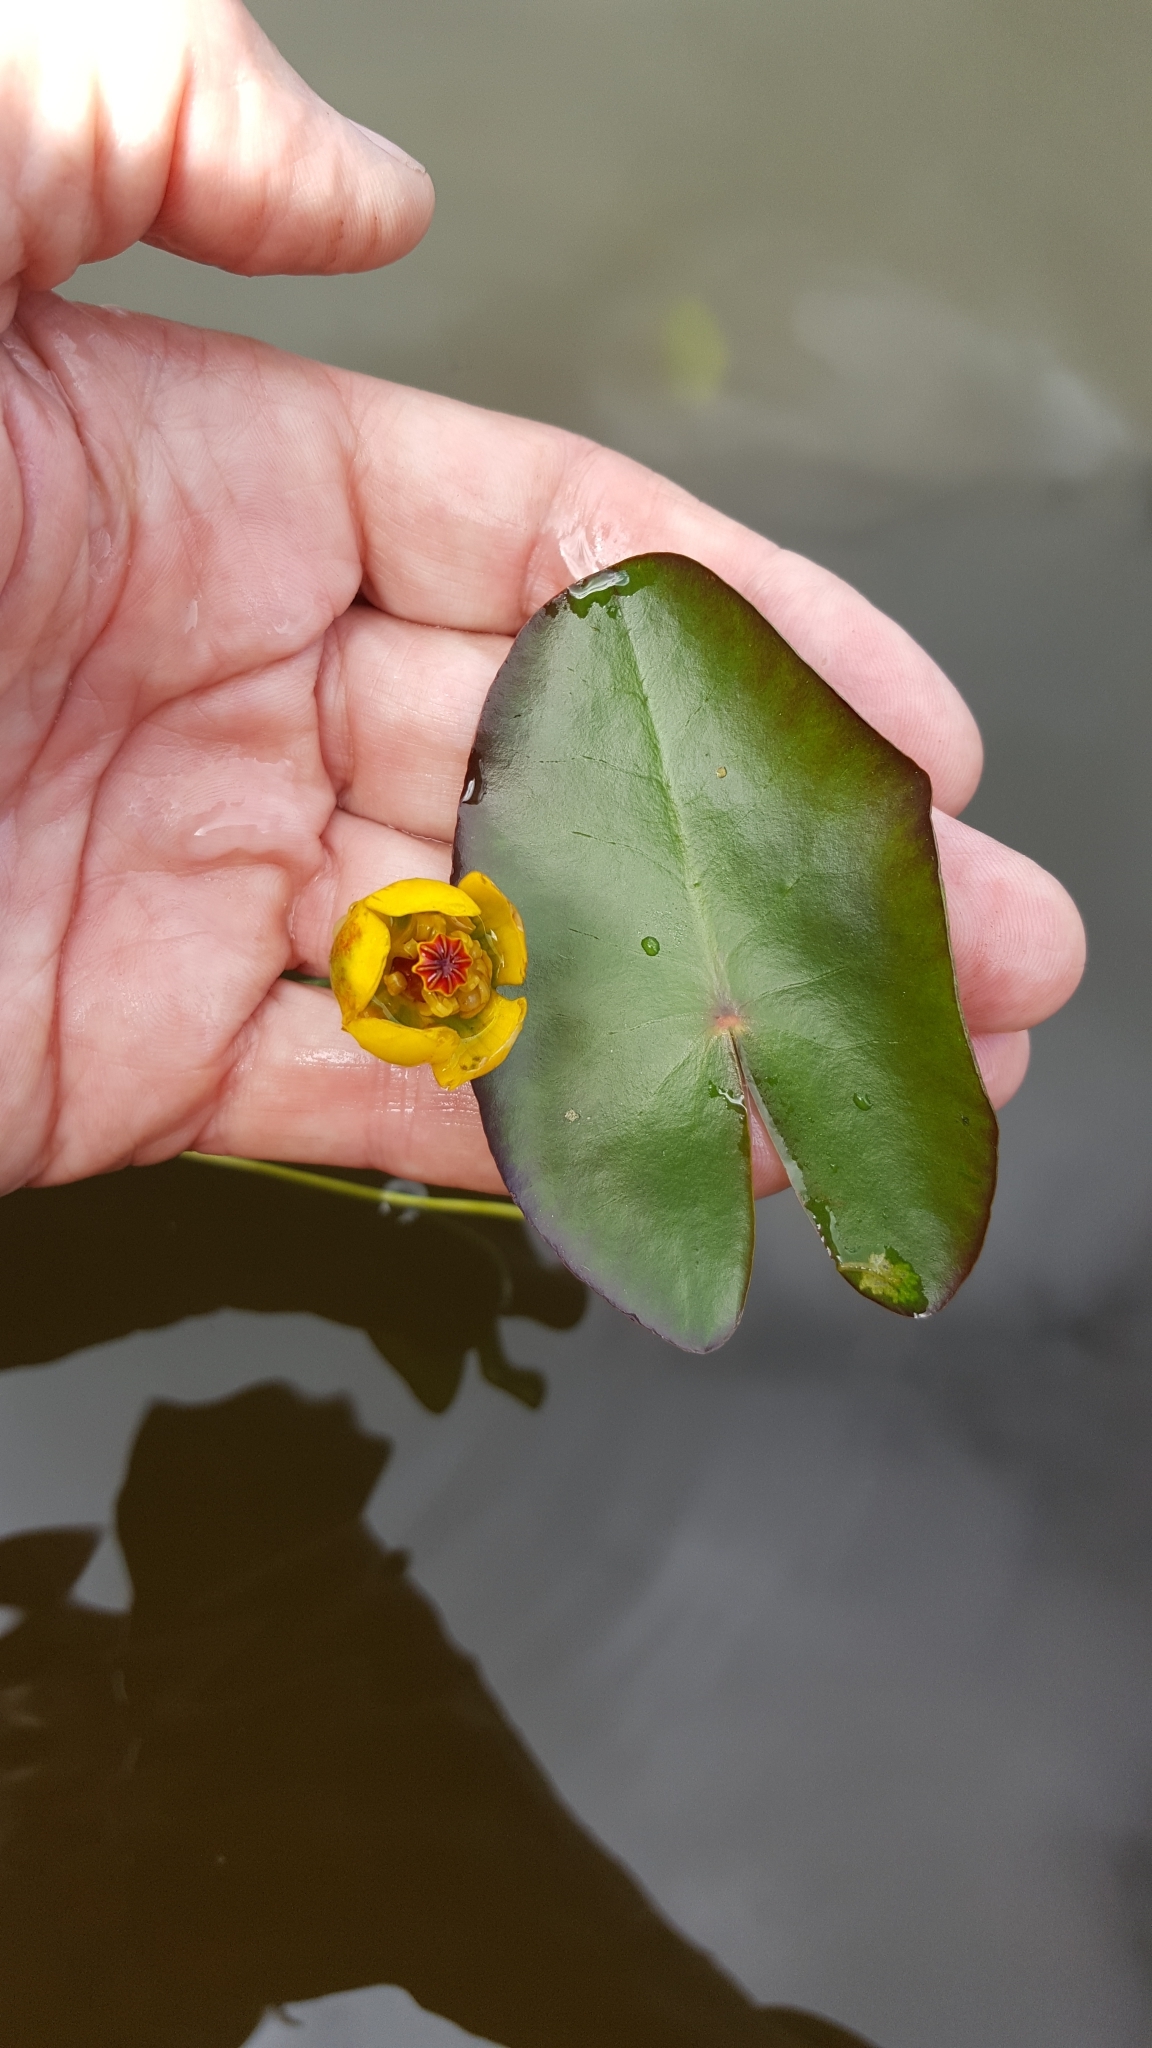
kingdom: Plantae
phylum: Tracheophyta
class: Magnoliopsida
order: Nymphaeales
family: Nymphaeaceae
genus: Nuphar
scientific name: Nuphar microphylla
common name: Small pond-lily
